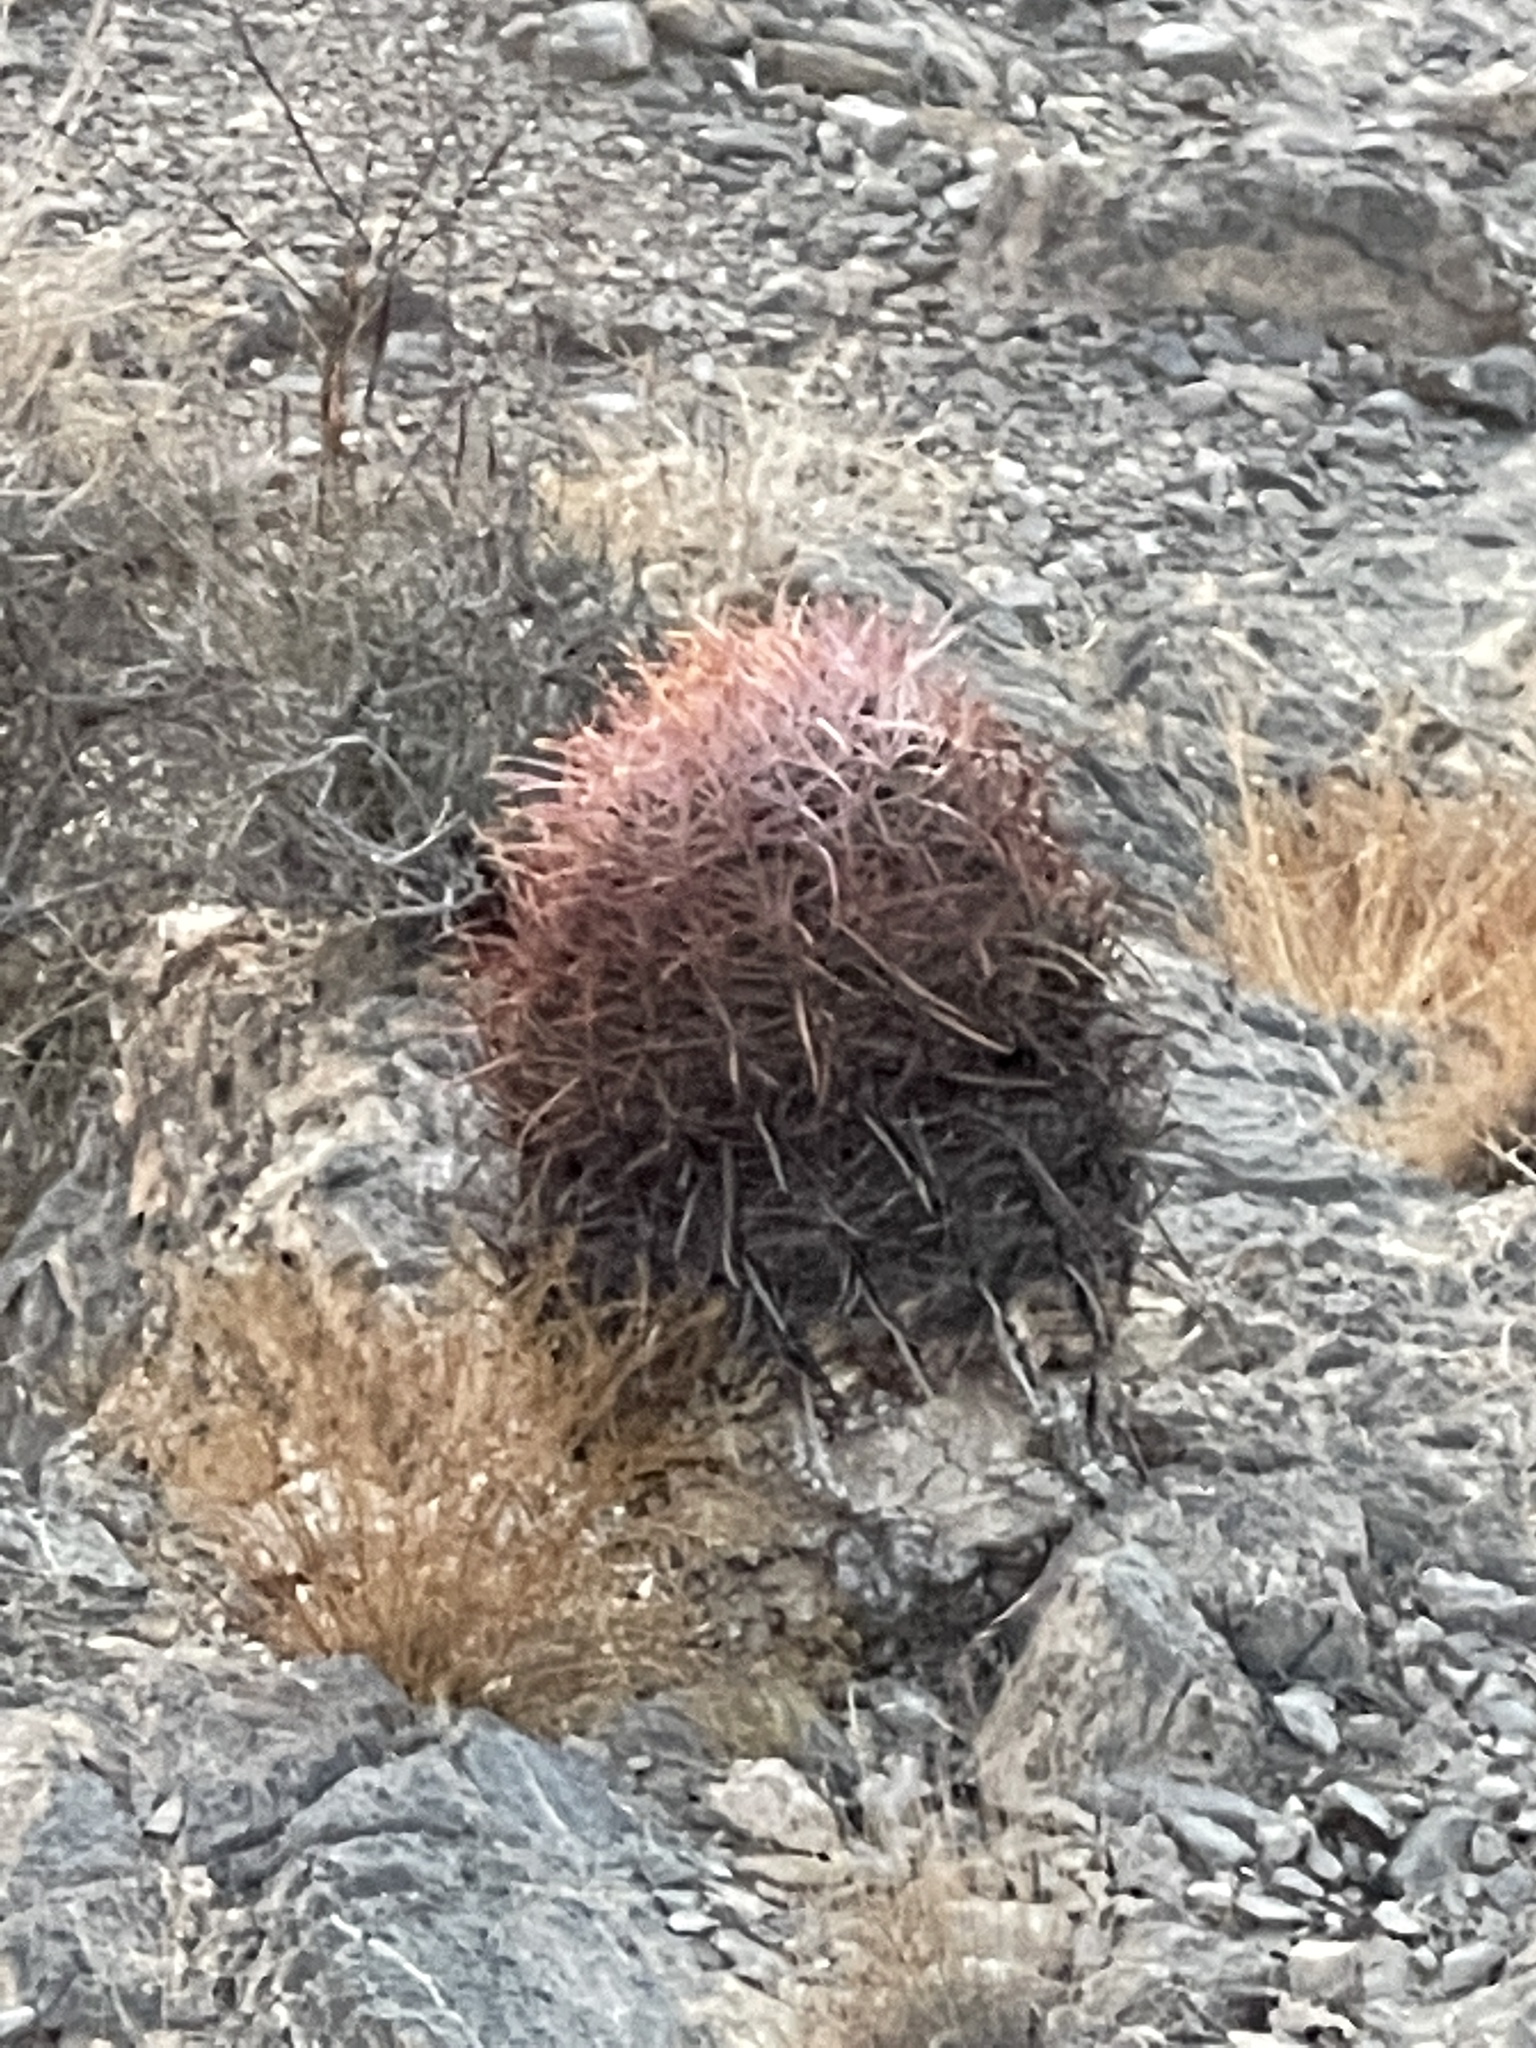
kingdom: Plantae
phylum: Tracheophyta
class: Magnoliopsida
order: Caryophyllales
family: Cactaceae
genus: Ferocactus
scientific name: Ferocactus cylindraceus
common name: California barrel cactus
